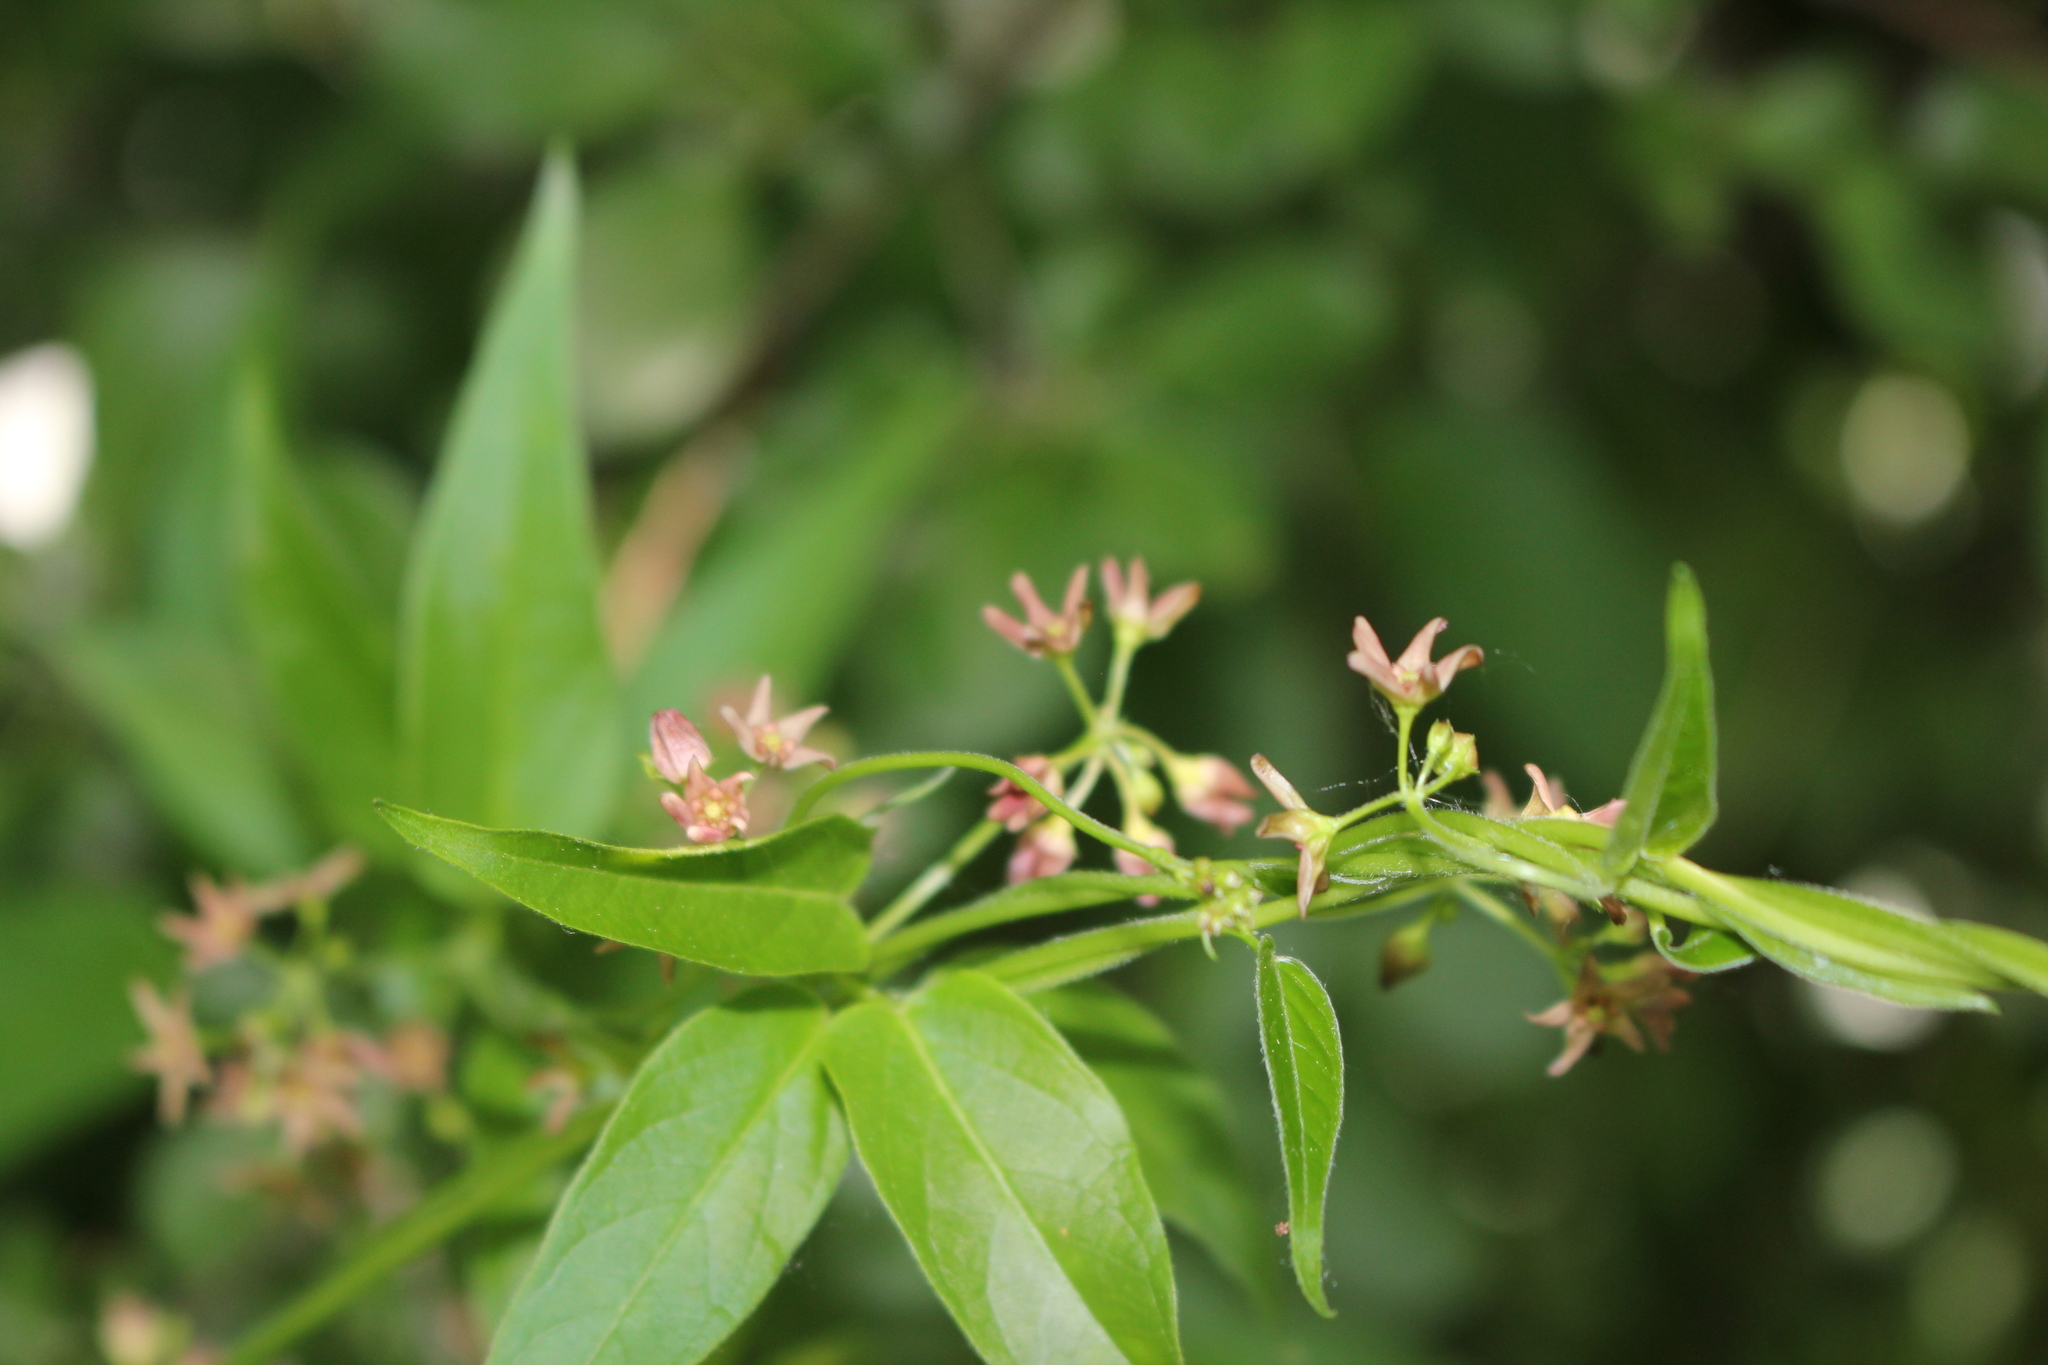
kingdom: Plantae
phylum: Tracheophyta
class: Magnoliopsida
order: Gentianales
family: Apocynaceae
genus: Vincetoxicum
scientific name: Vincetoxicum rossicum
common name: Dog-strangling vine
